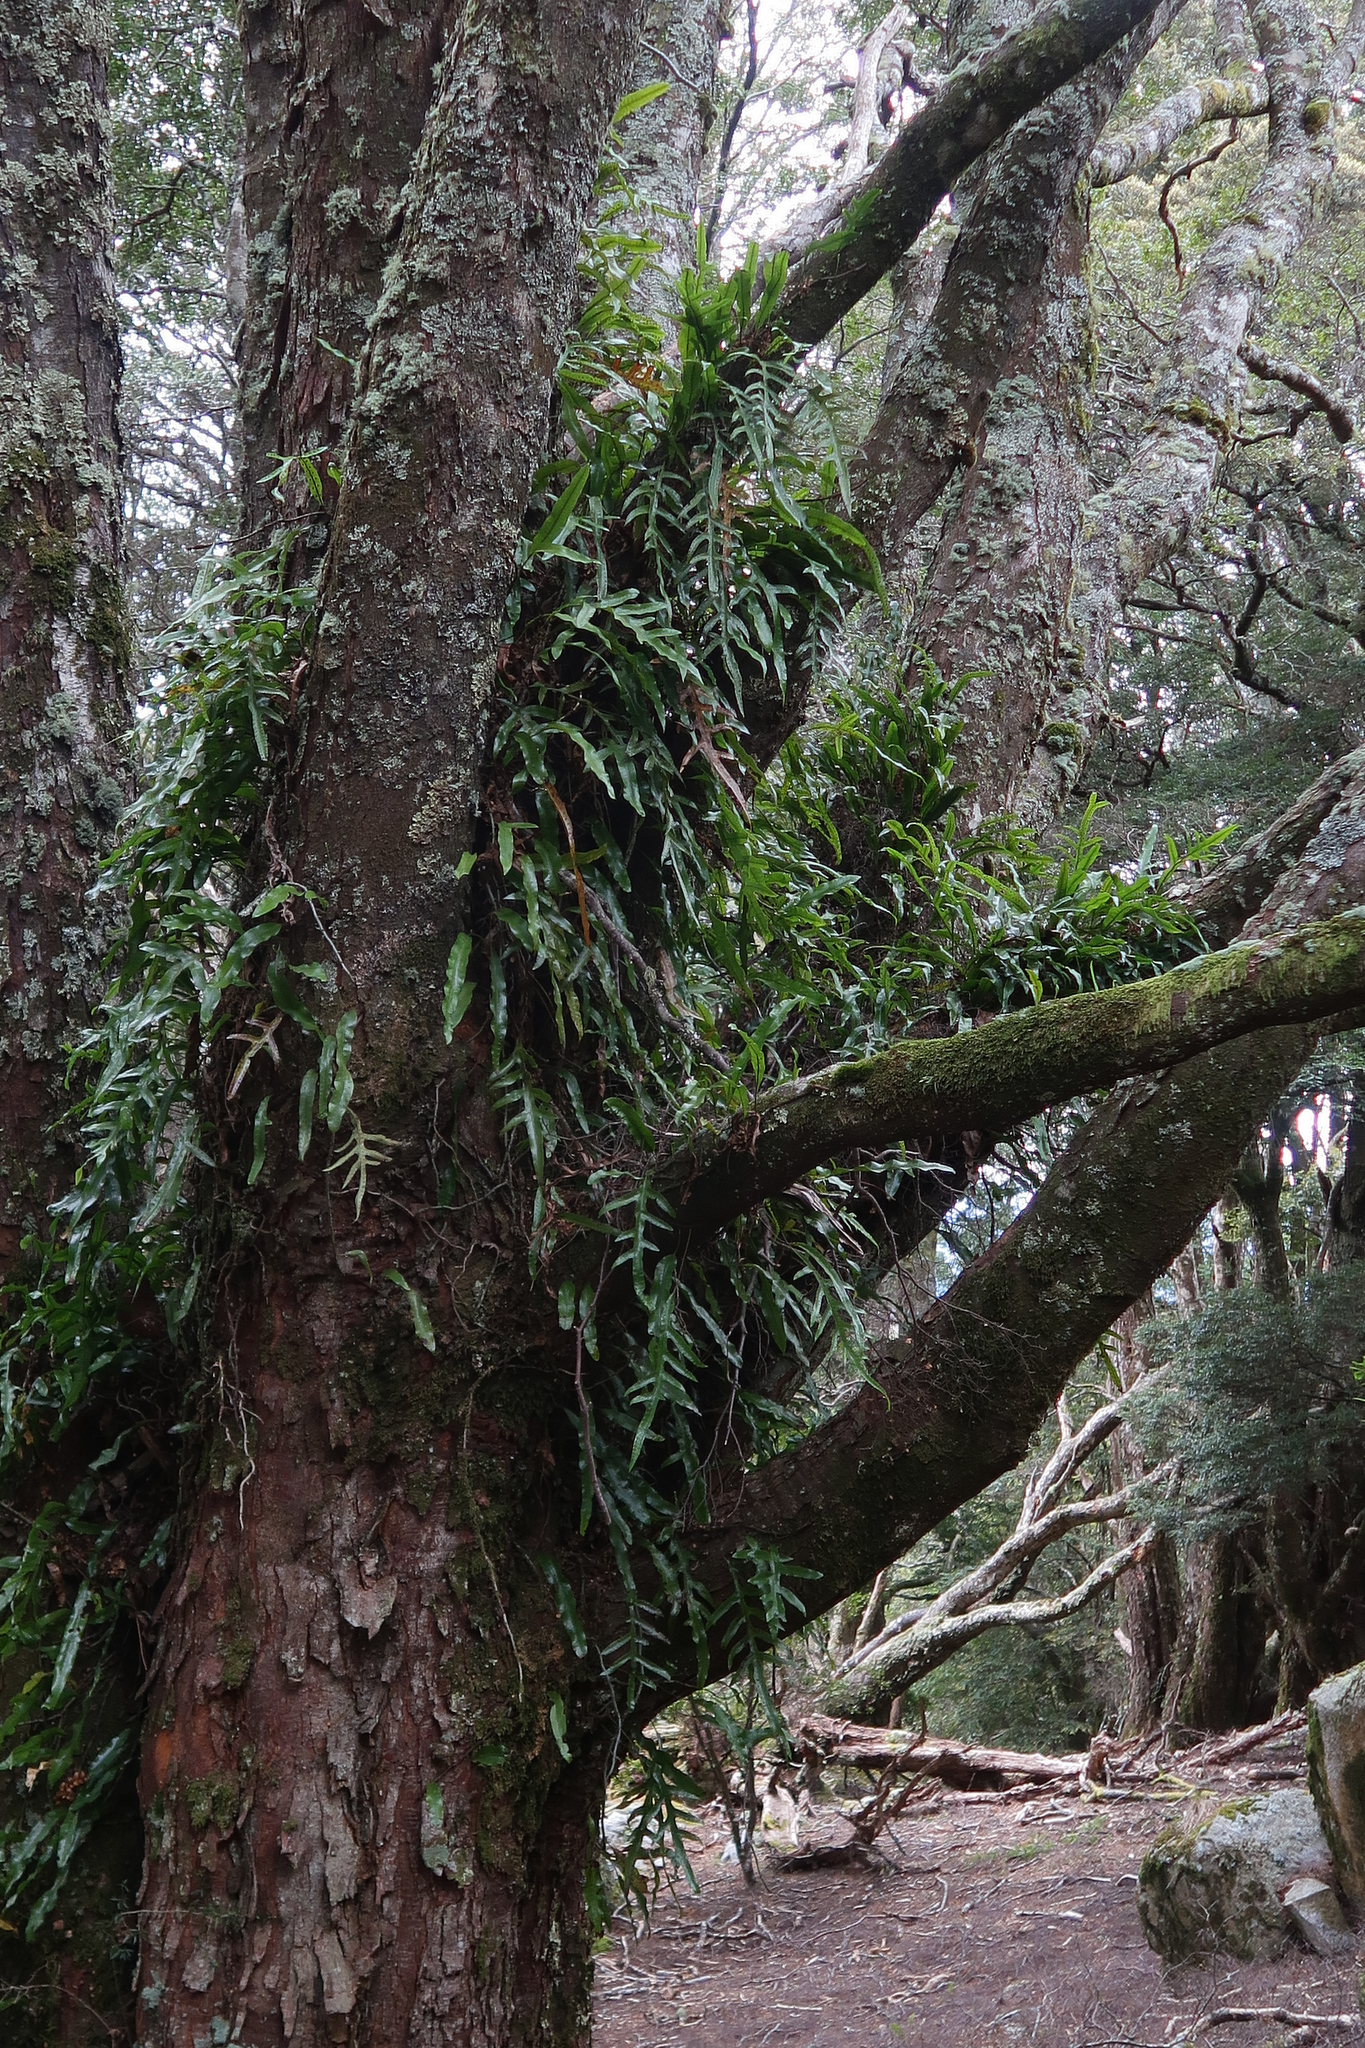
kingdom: Plantae
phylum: Tracheophyta
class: Polypodiopsida
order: Polypodiales
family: Polypodiaceae
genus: Lecanopteris
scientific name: Lecanopteris pustulata
